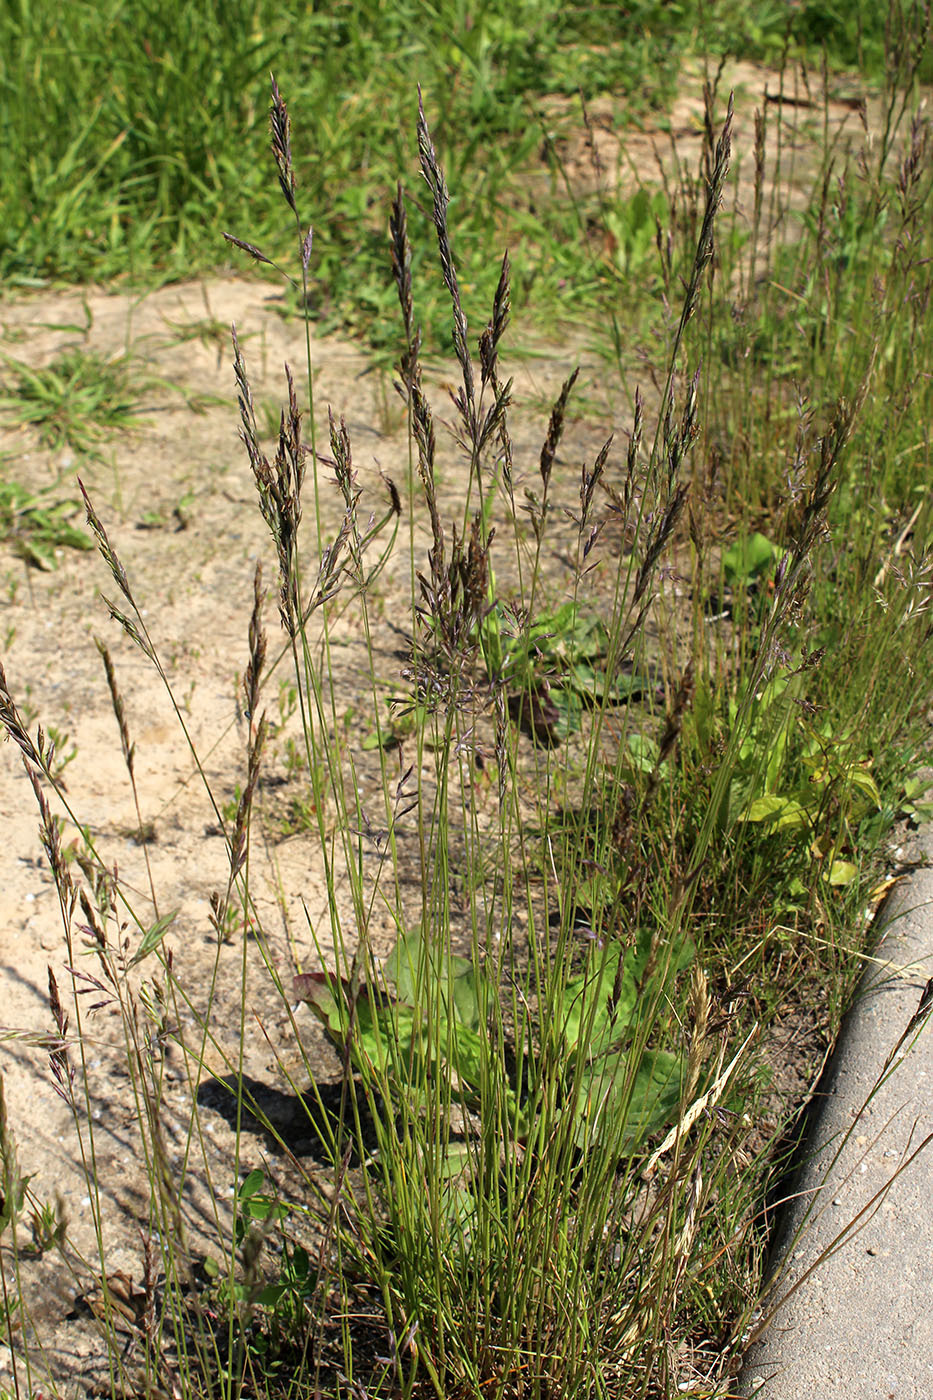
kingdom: Plantae
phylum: Tracheophyta
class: Liliopsida
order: Poales
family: Poaceae
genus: Festuca
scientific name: Festuca rubra
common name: Red fescue
